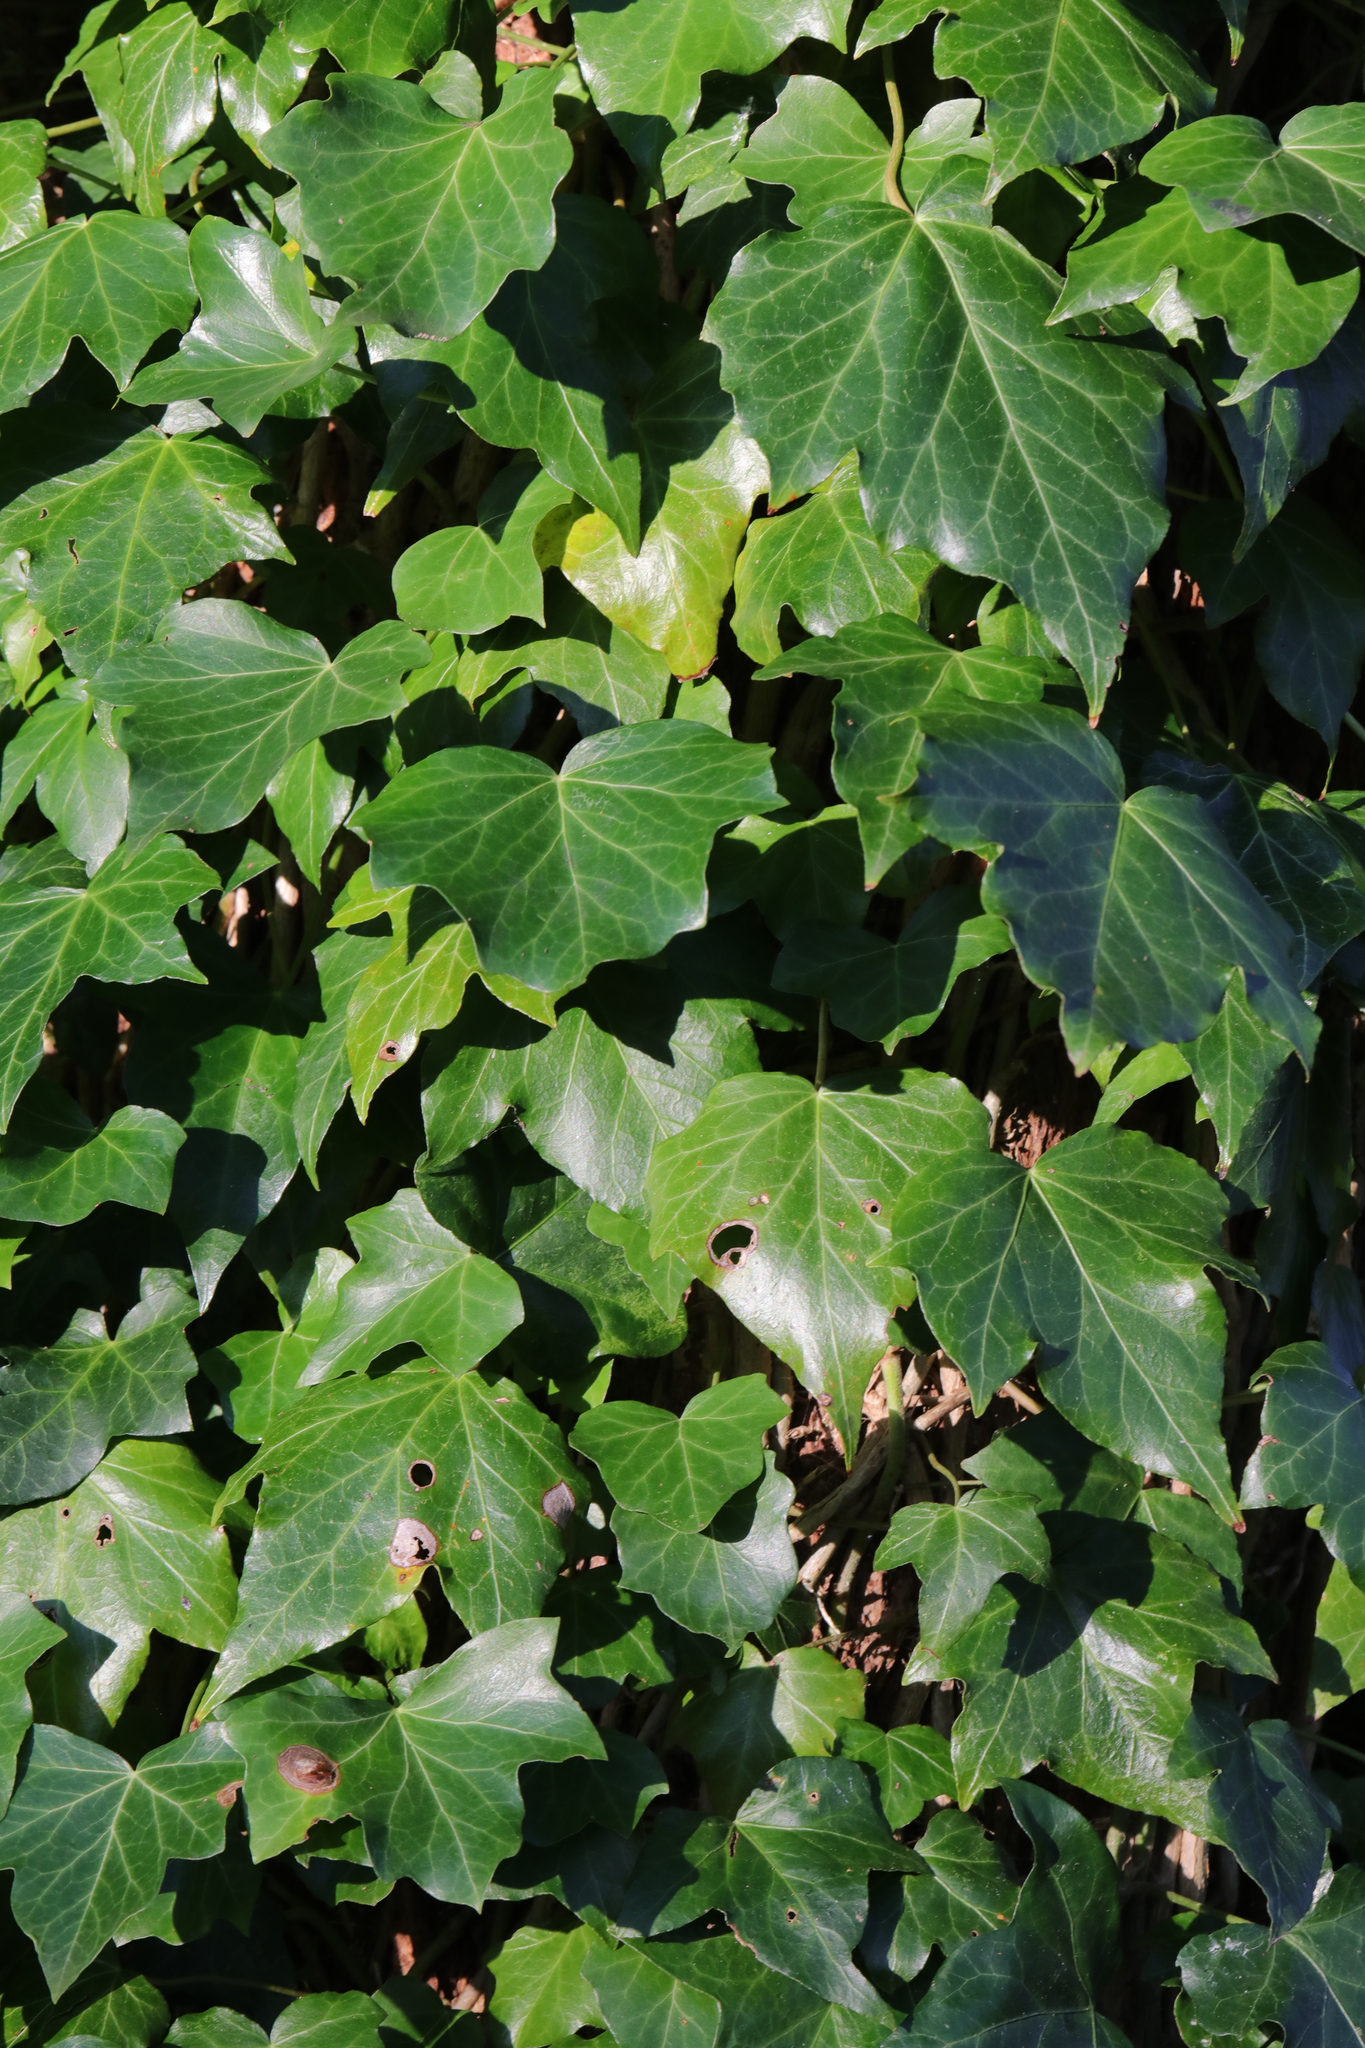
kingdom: Plantae
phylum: Tracheophyta
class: Magnoliopsida
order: Apiales
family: Araliaceae
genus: Hedera
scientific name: Hedera helix
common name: Ivy
